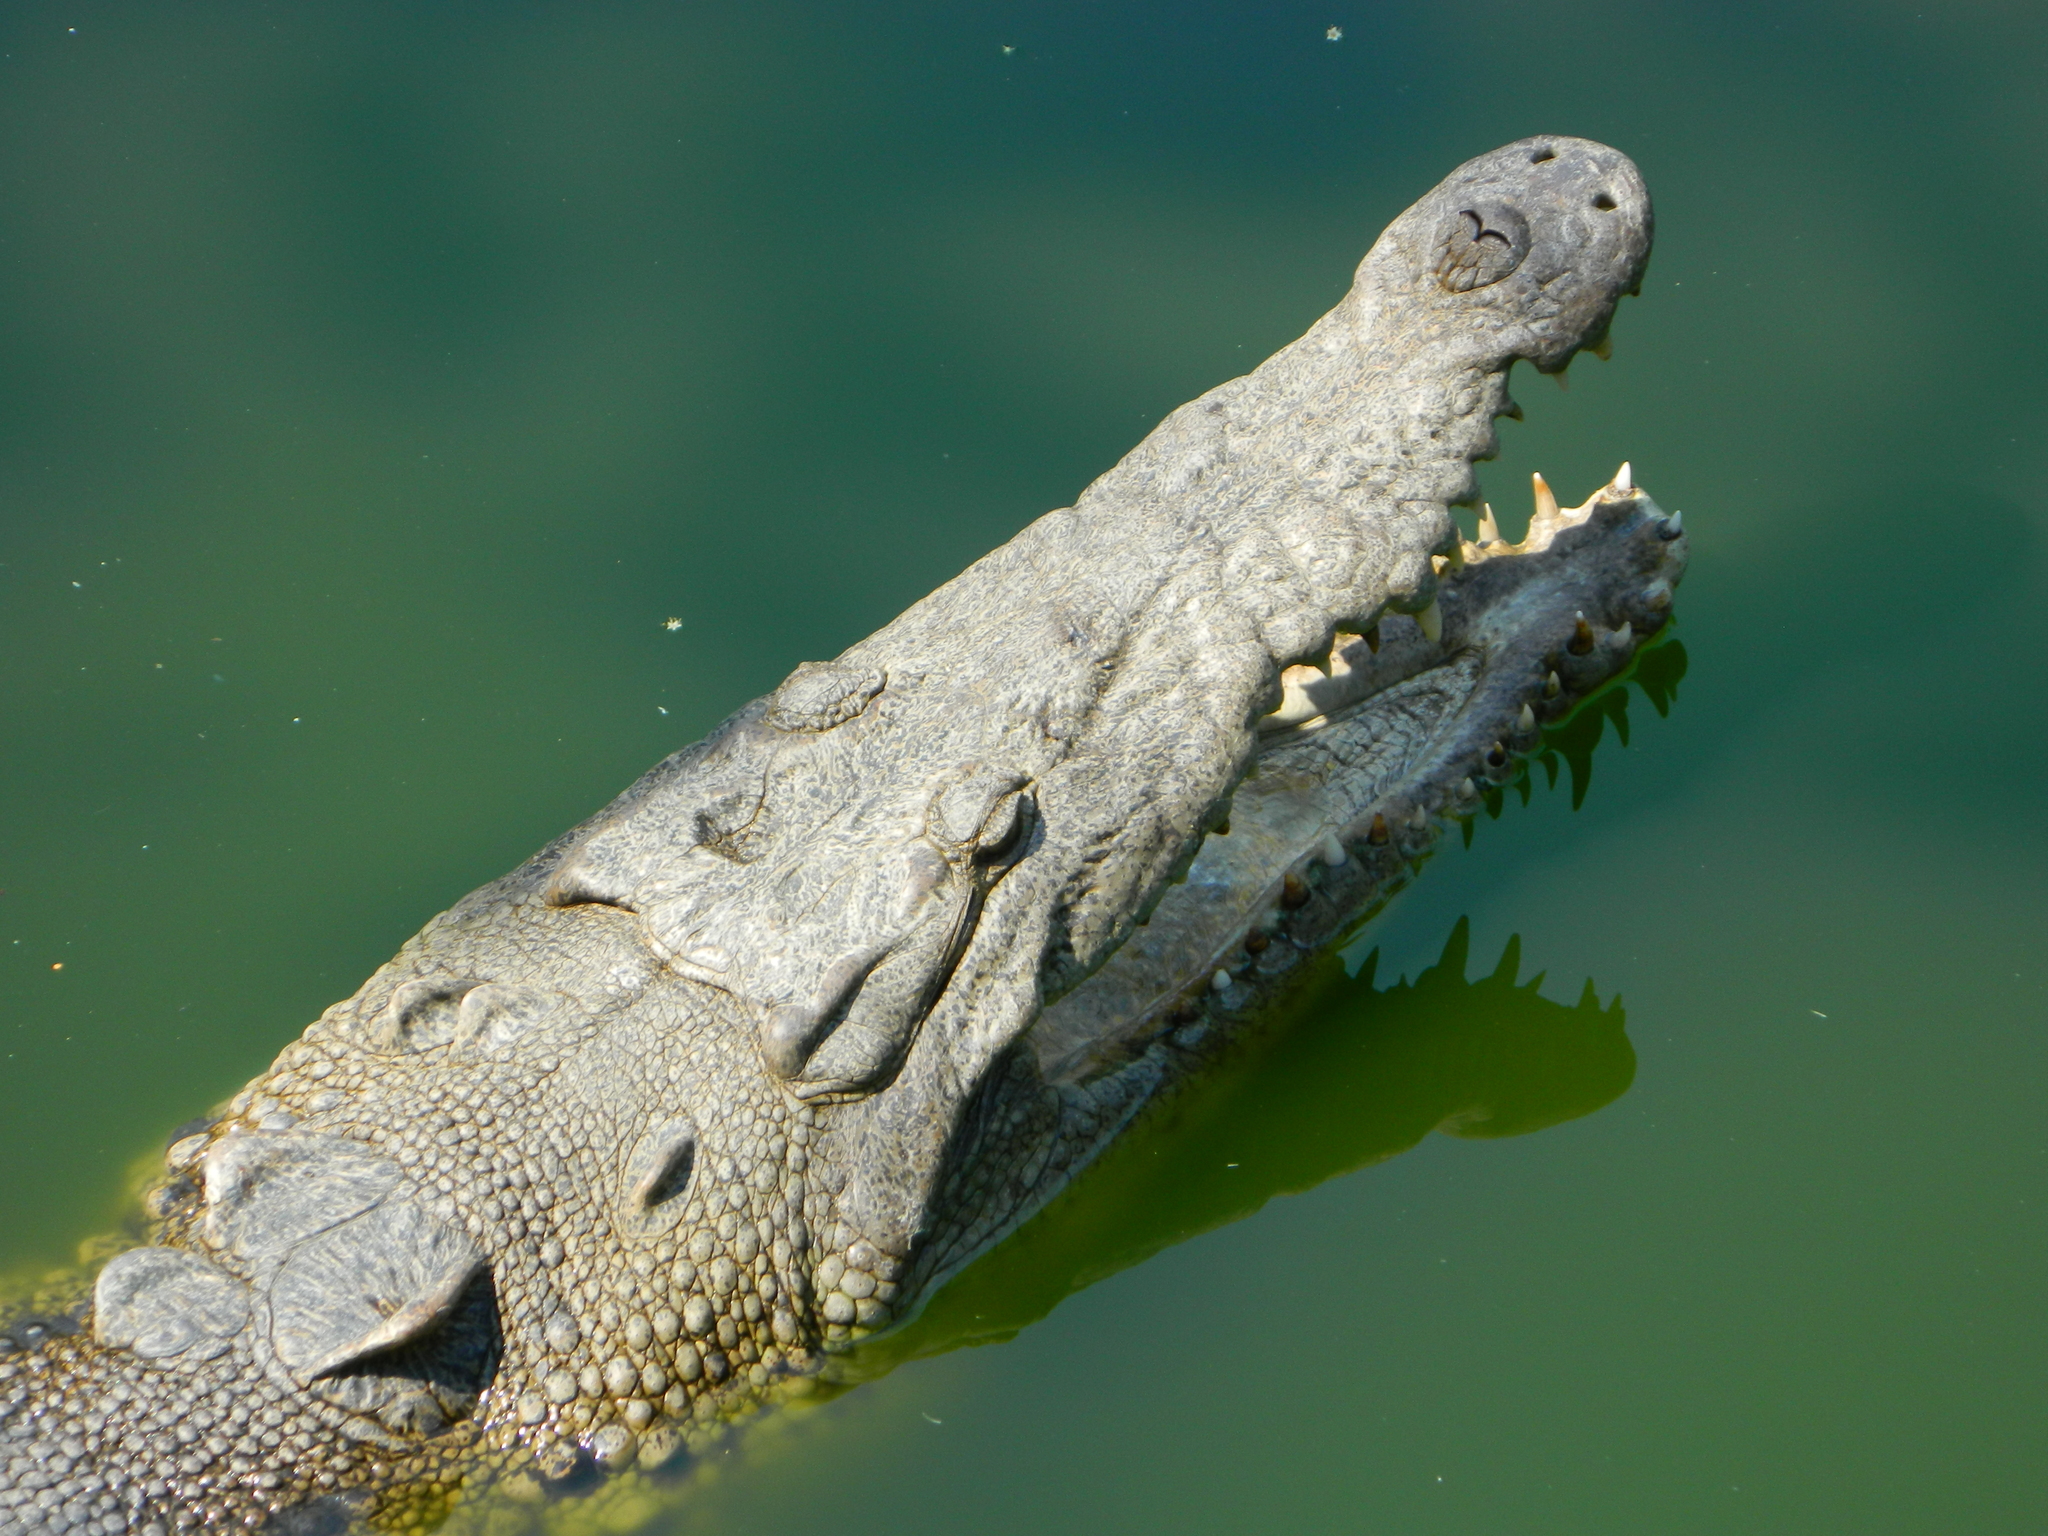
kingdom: Animalia
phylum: Chordata
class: Crocodylia
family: Crocodylidae
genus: Crocodylus
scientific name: Crocodylus acutus
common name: American crocodile
